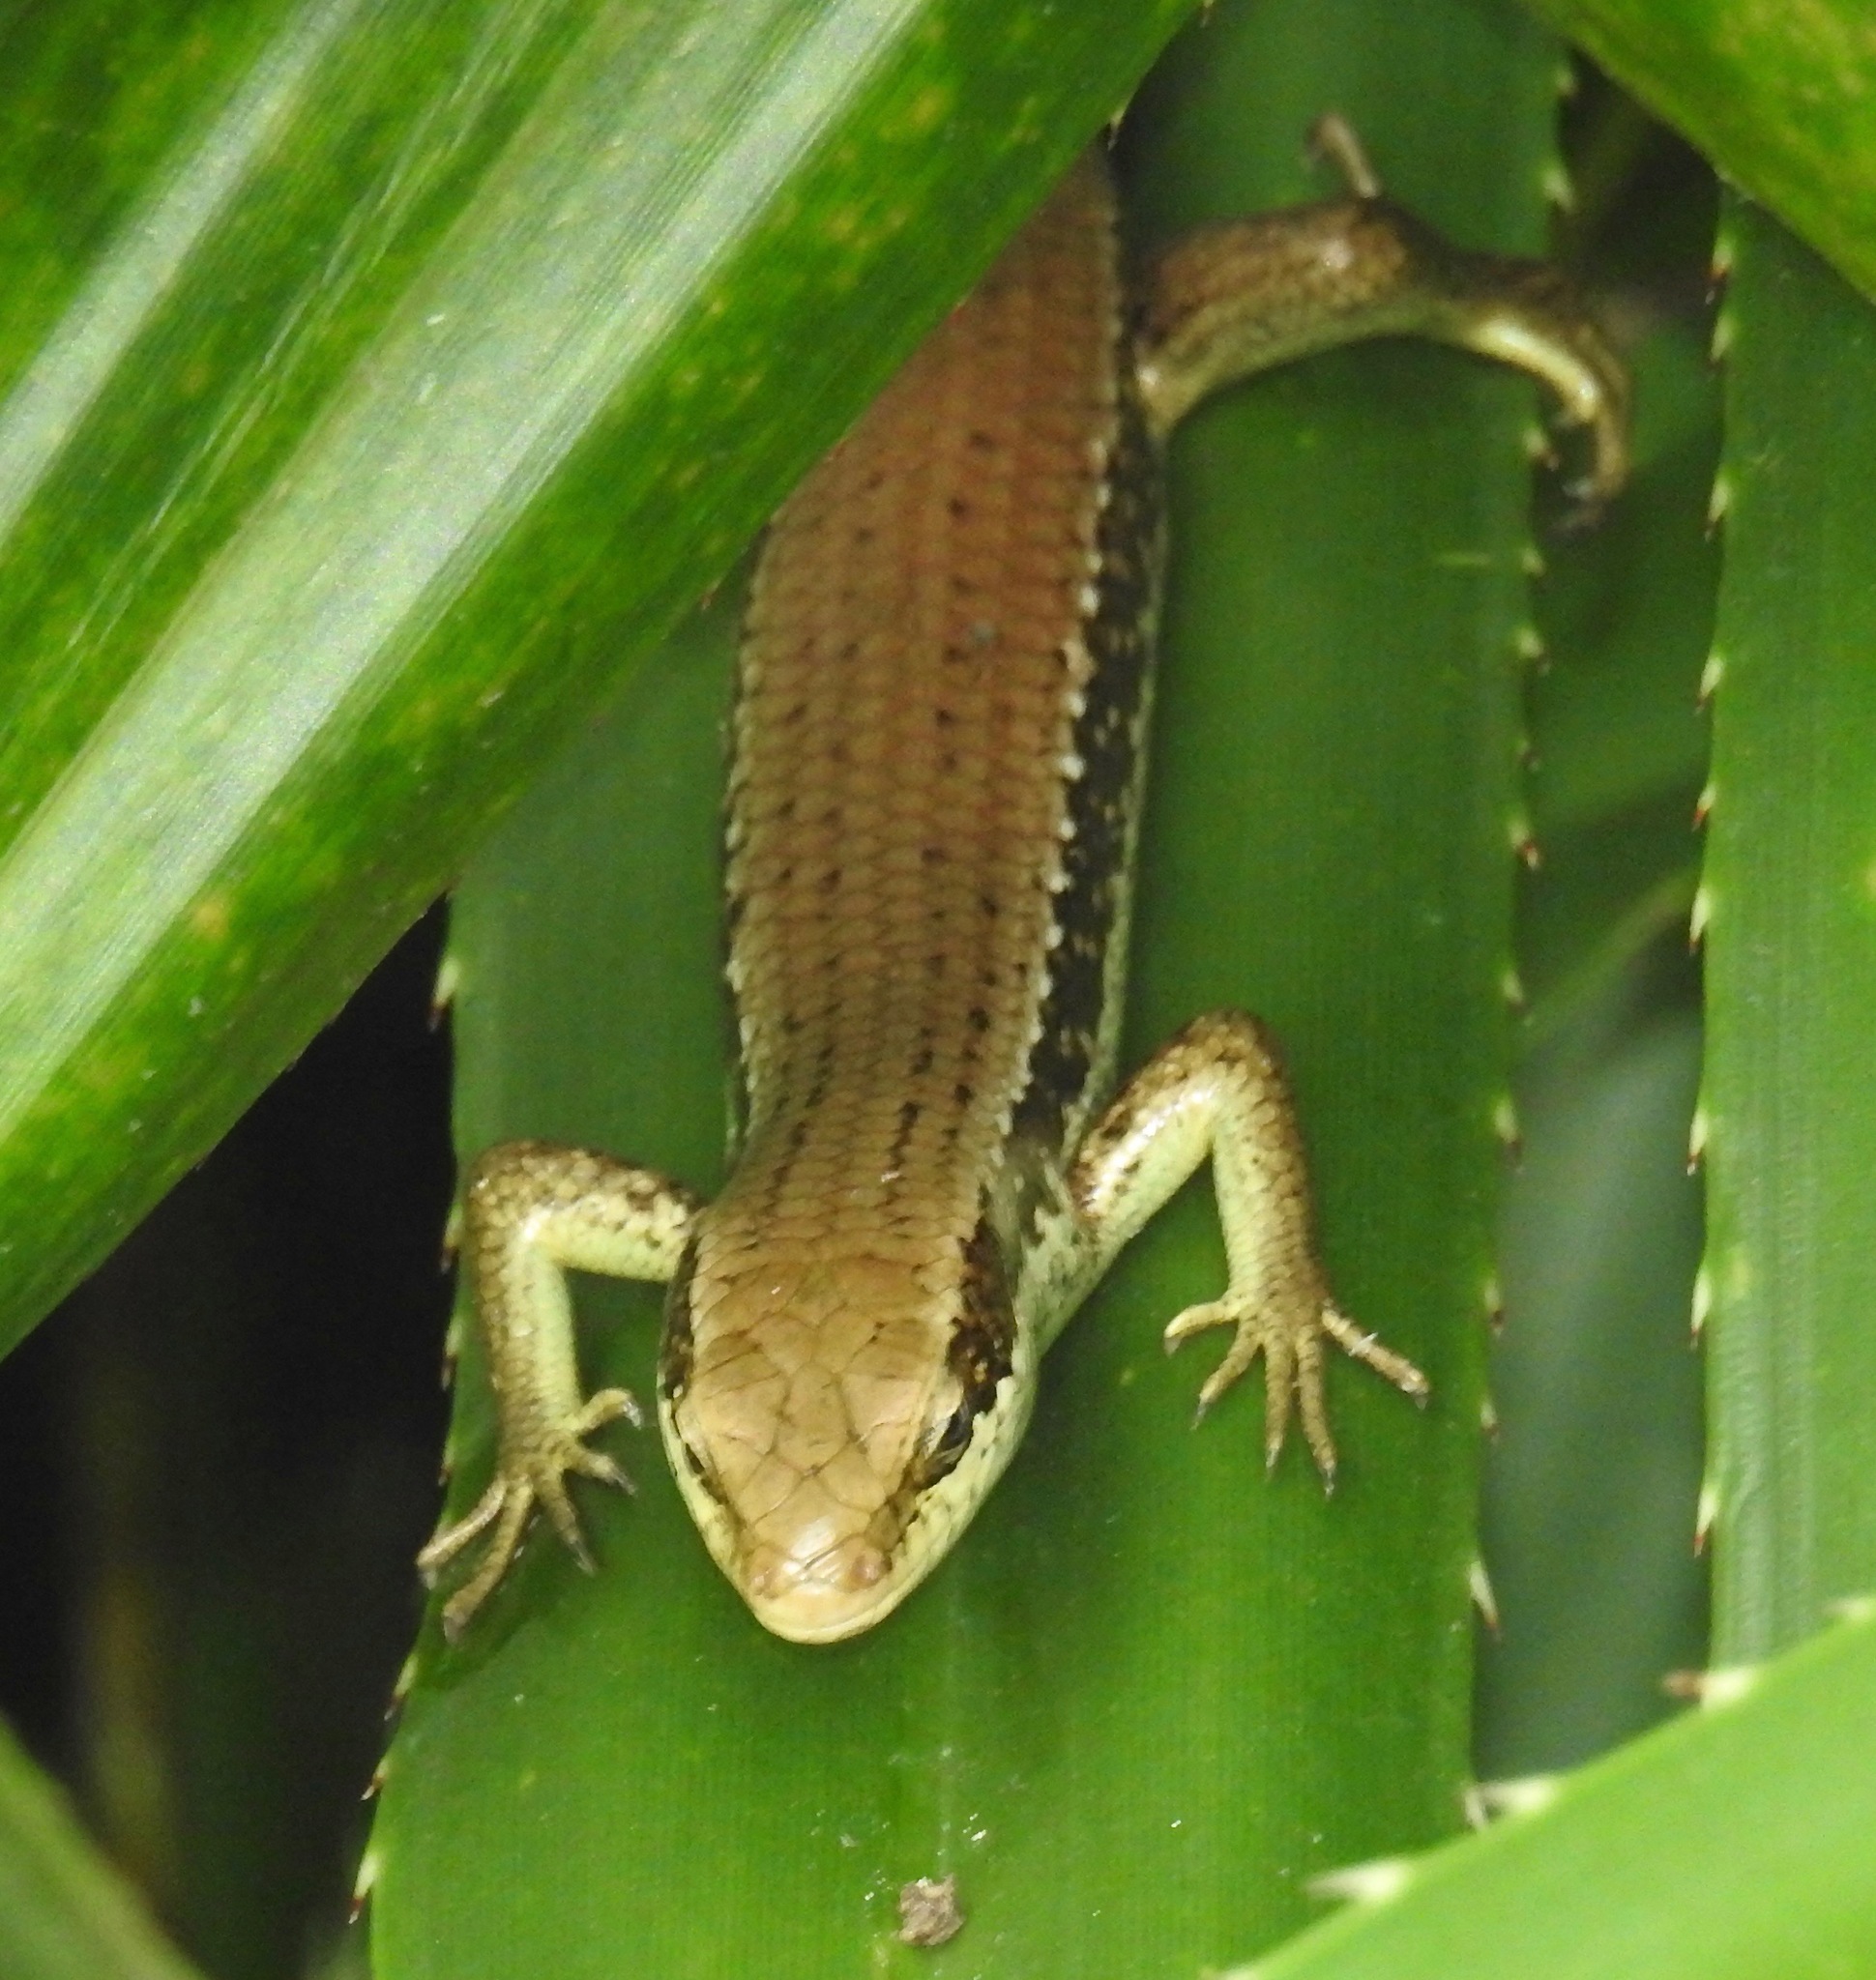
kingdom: Animalia
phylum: Chordata
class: Squamata
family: Scincidae
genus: Eutropis
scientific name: Eutropis longicaudata
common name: Long-tailed sun skink
